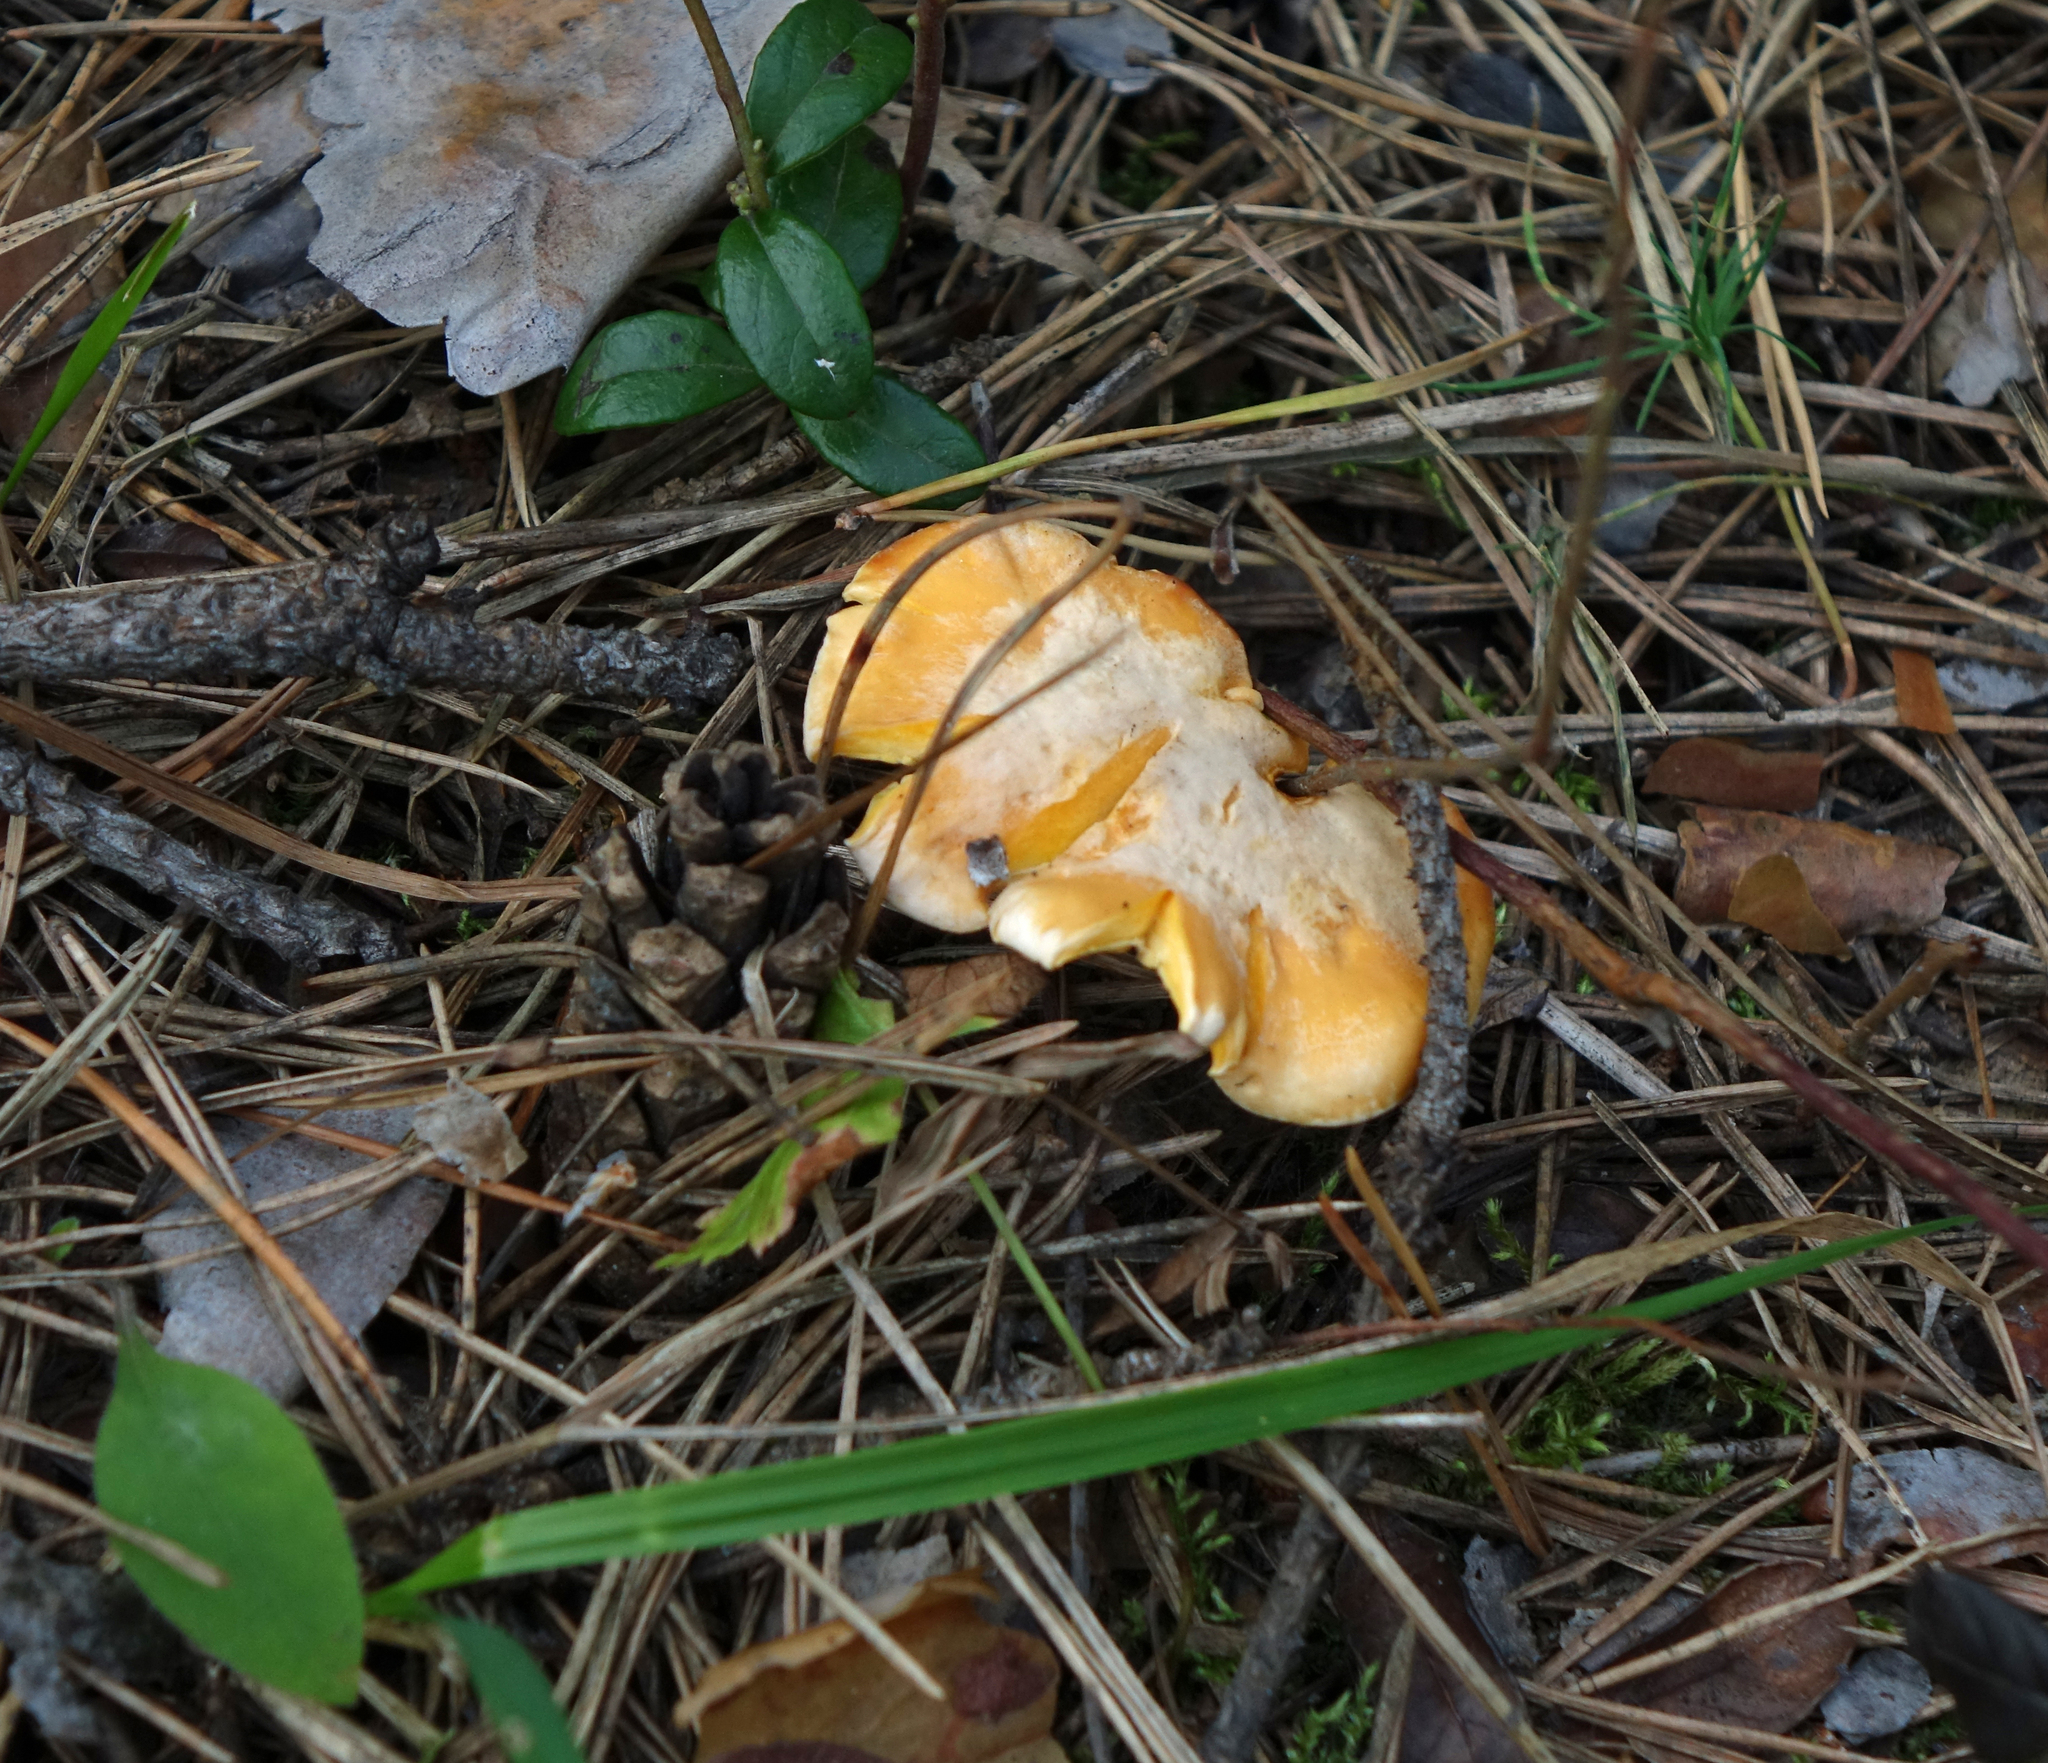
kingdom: Fungi
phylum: Basidiomycota
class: Agaricomycetes
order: Cantharellales
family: Hydnaceae
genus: Cantharellus
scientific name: Cantharellus cibarius
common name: Chanterelle
